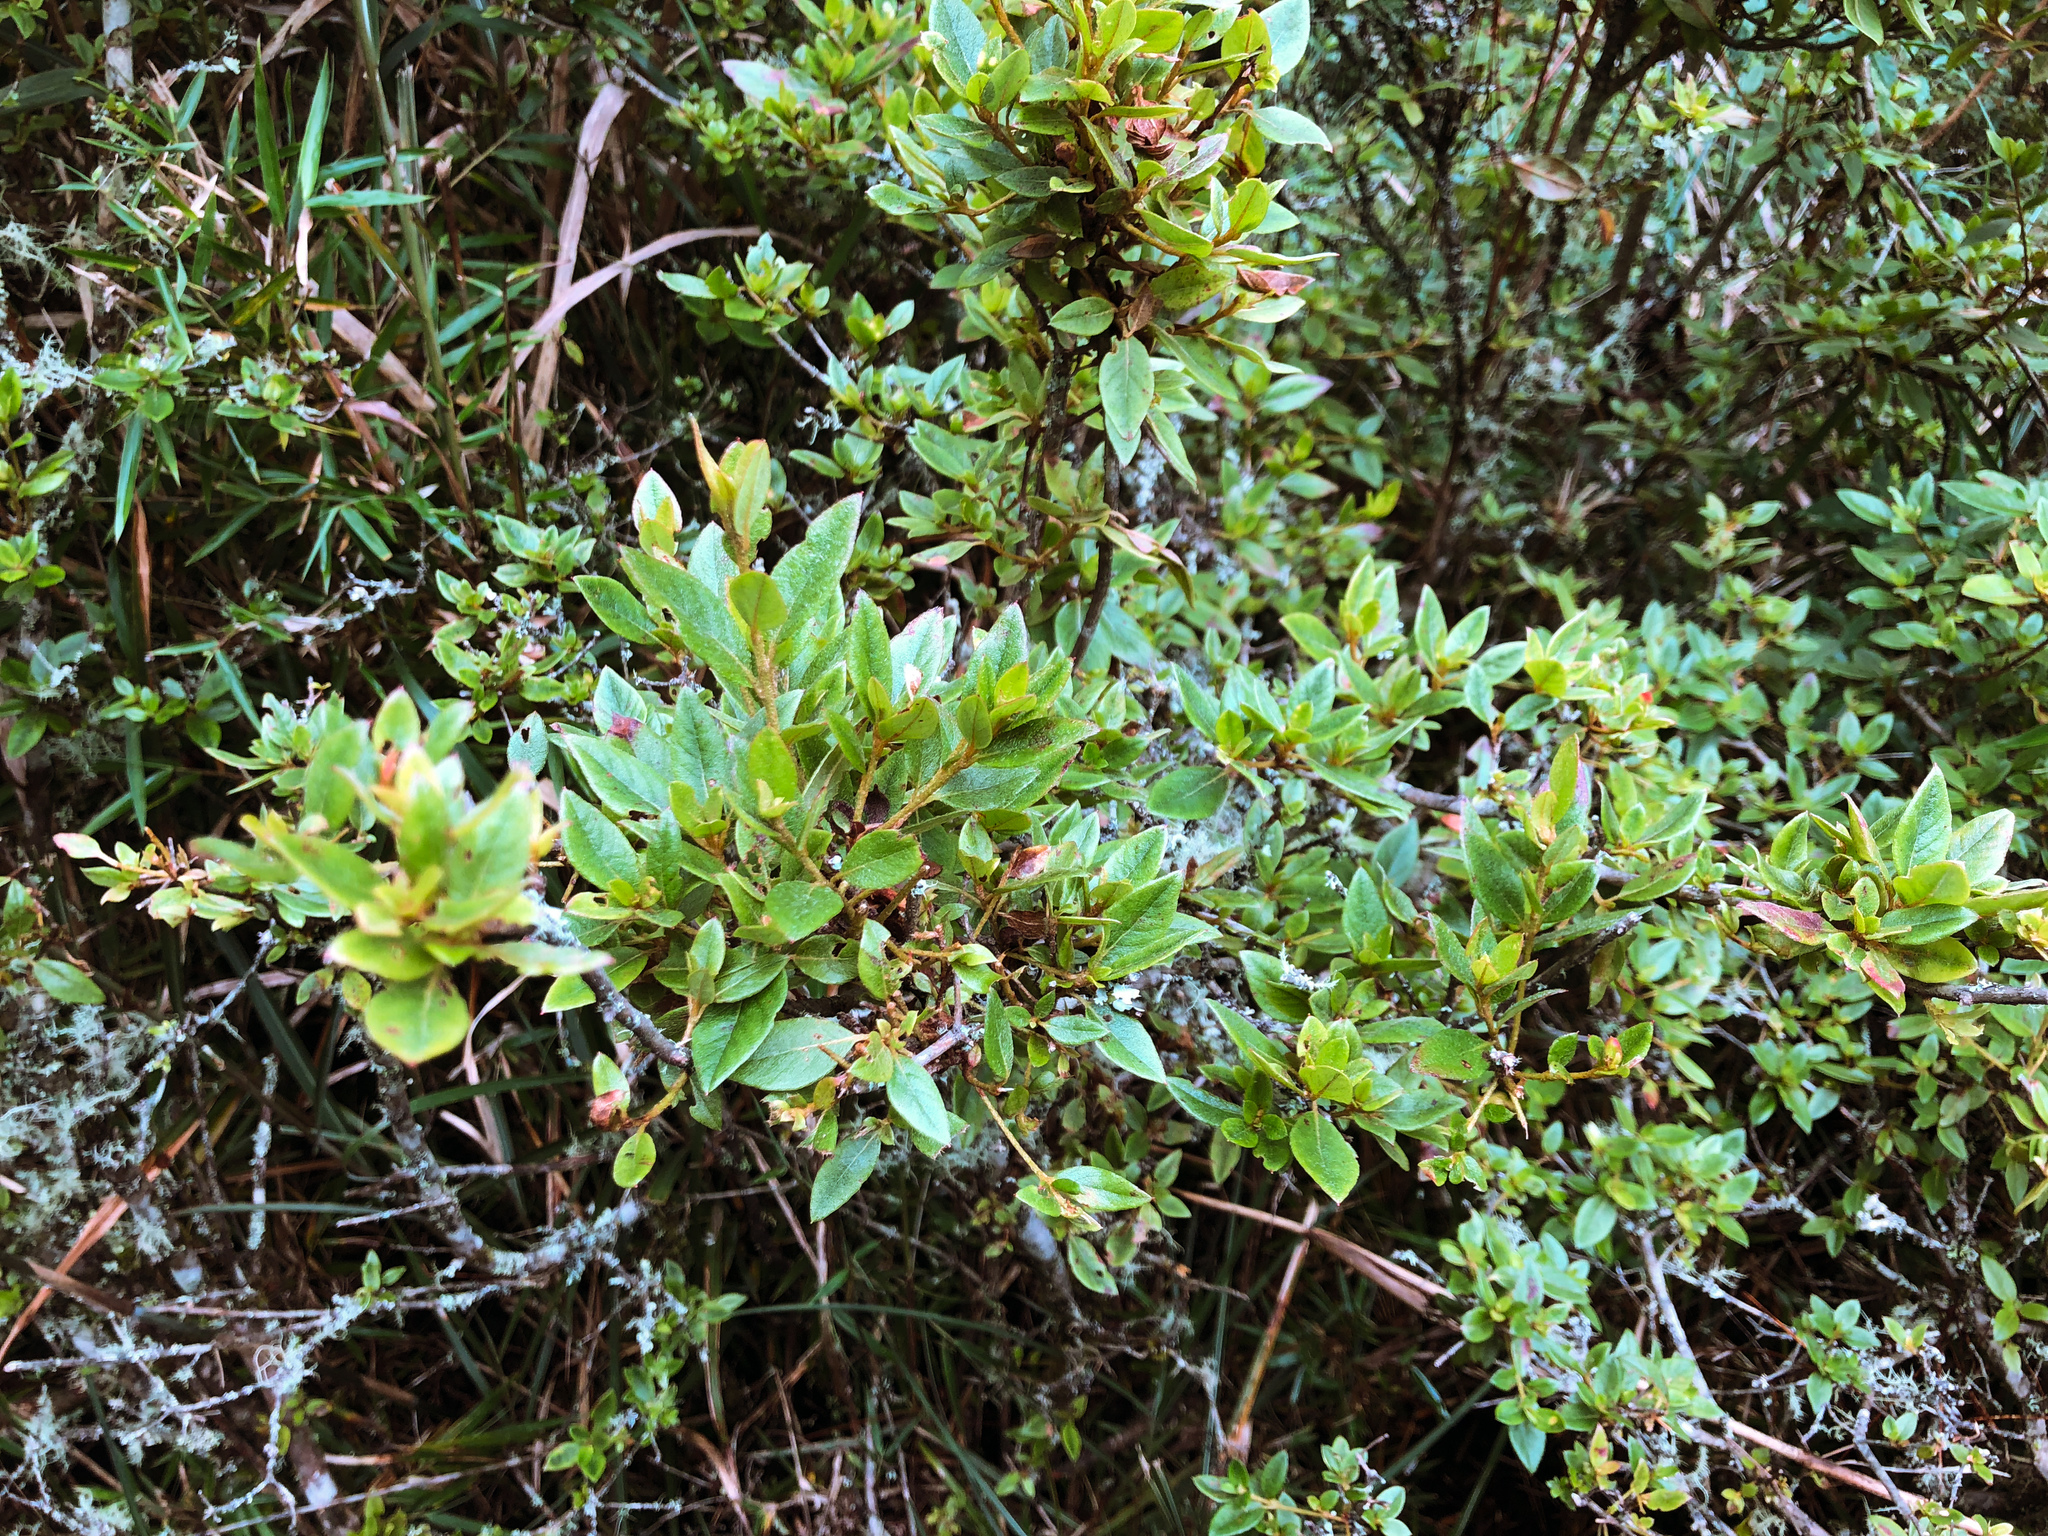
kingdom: Plantae
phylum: Tracheophyta
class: Magnoliopsida
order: Ericales
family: Ericaceae
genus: Rhododendron
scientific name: Rhododendron rubropilosum
